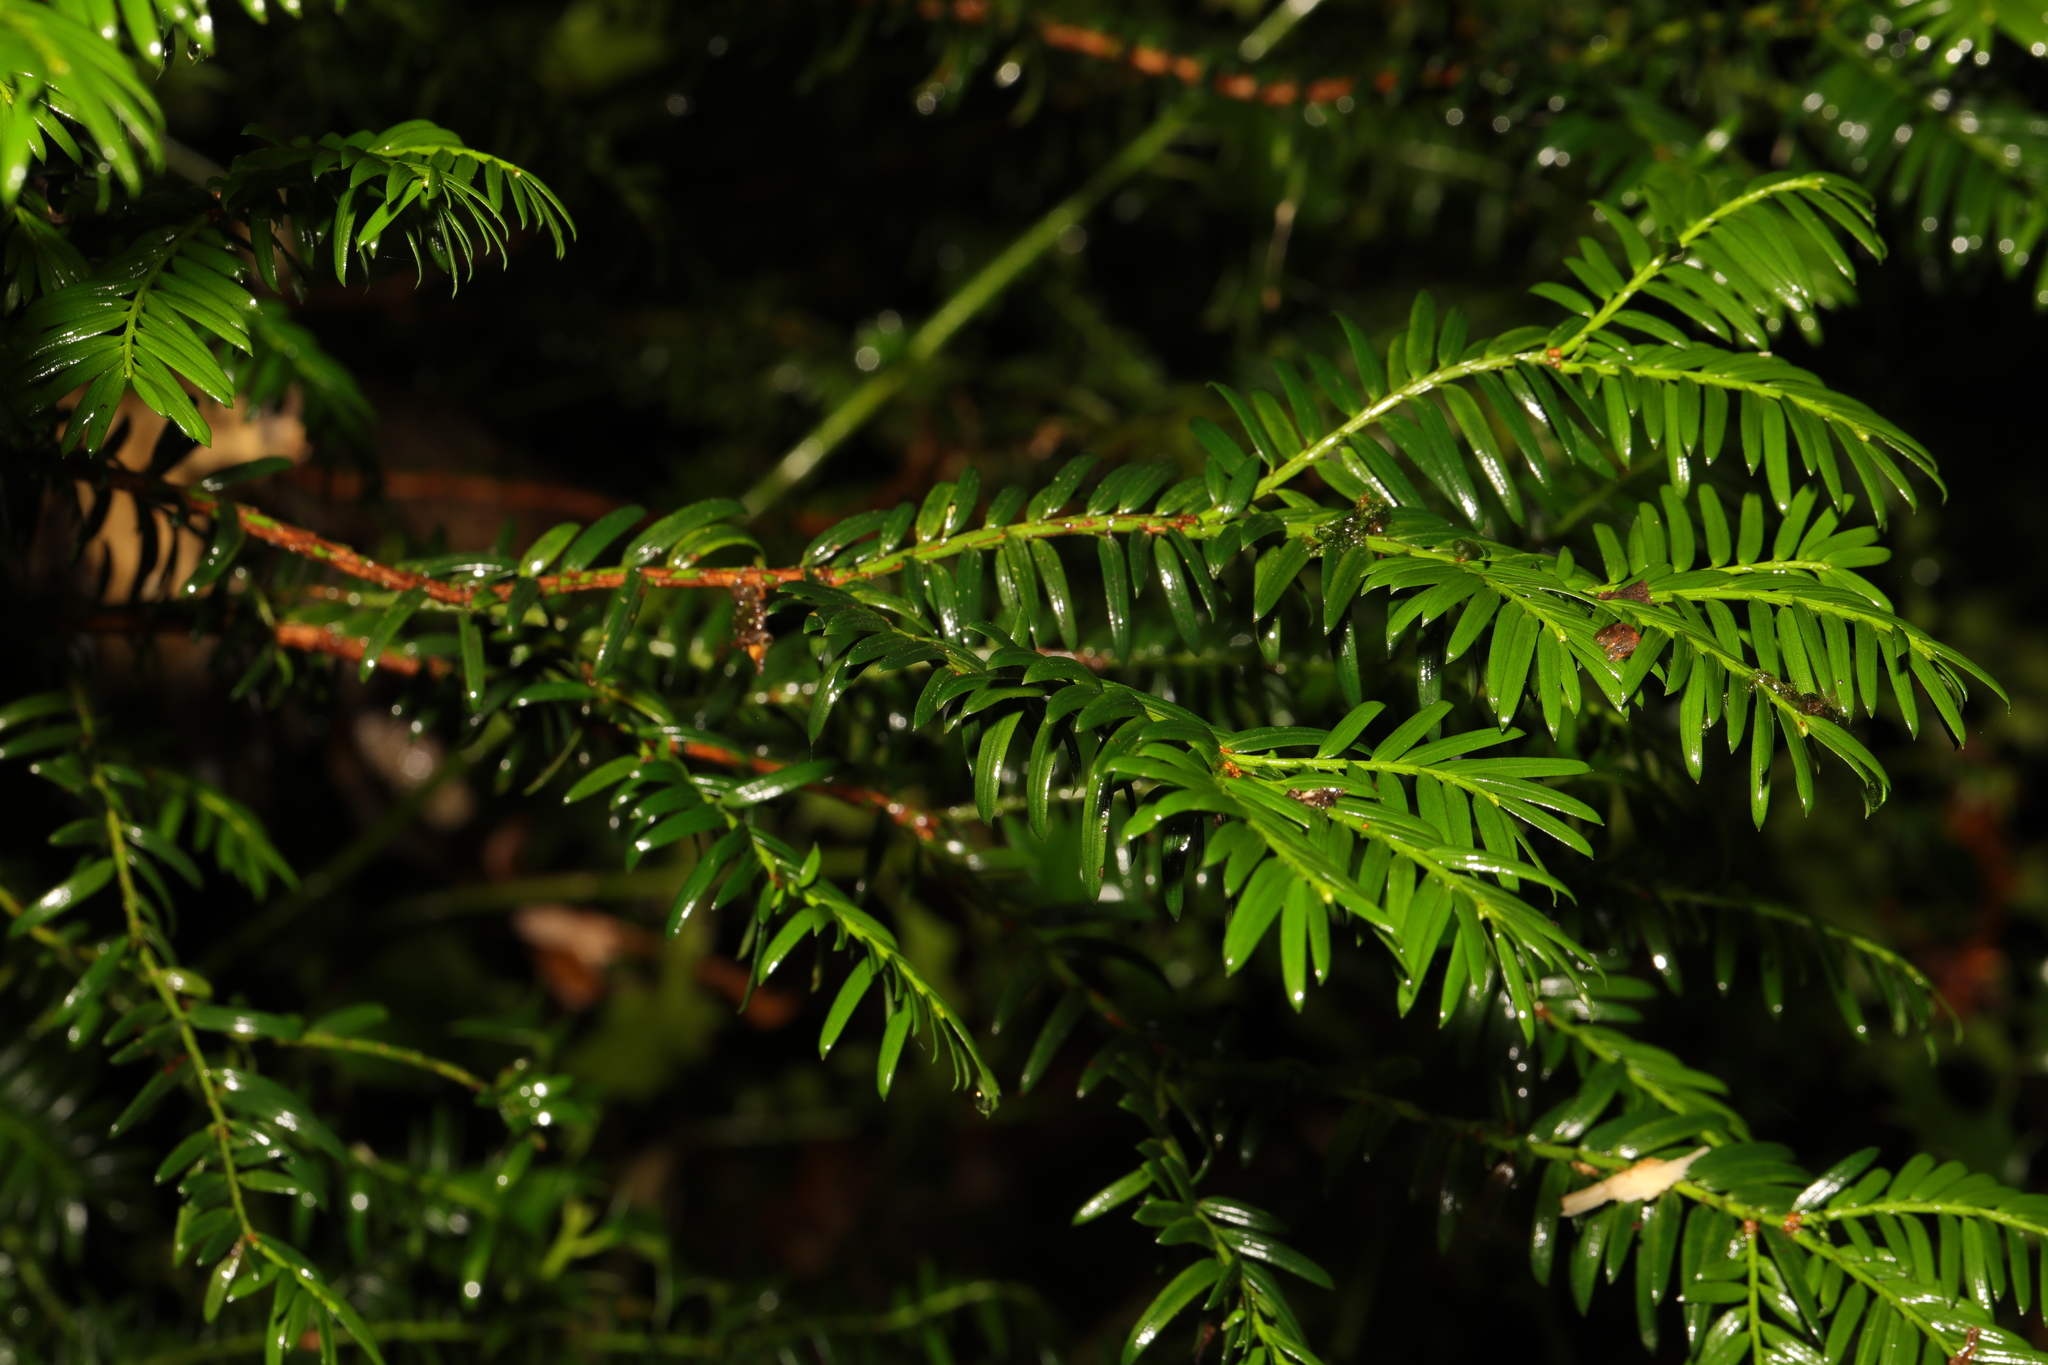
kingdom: Plantae
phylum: Tracheophyta
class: Pinopsida
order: Pinales
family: Taxaceae
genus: Taxus
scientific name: Taxus baccata
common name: Yew
